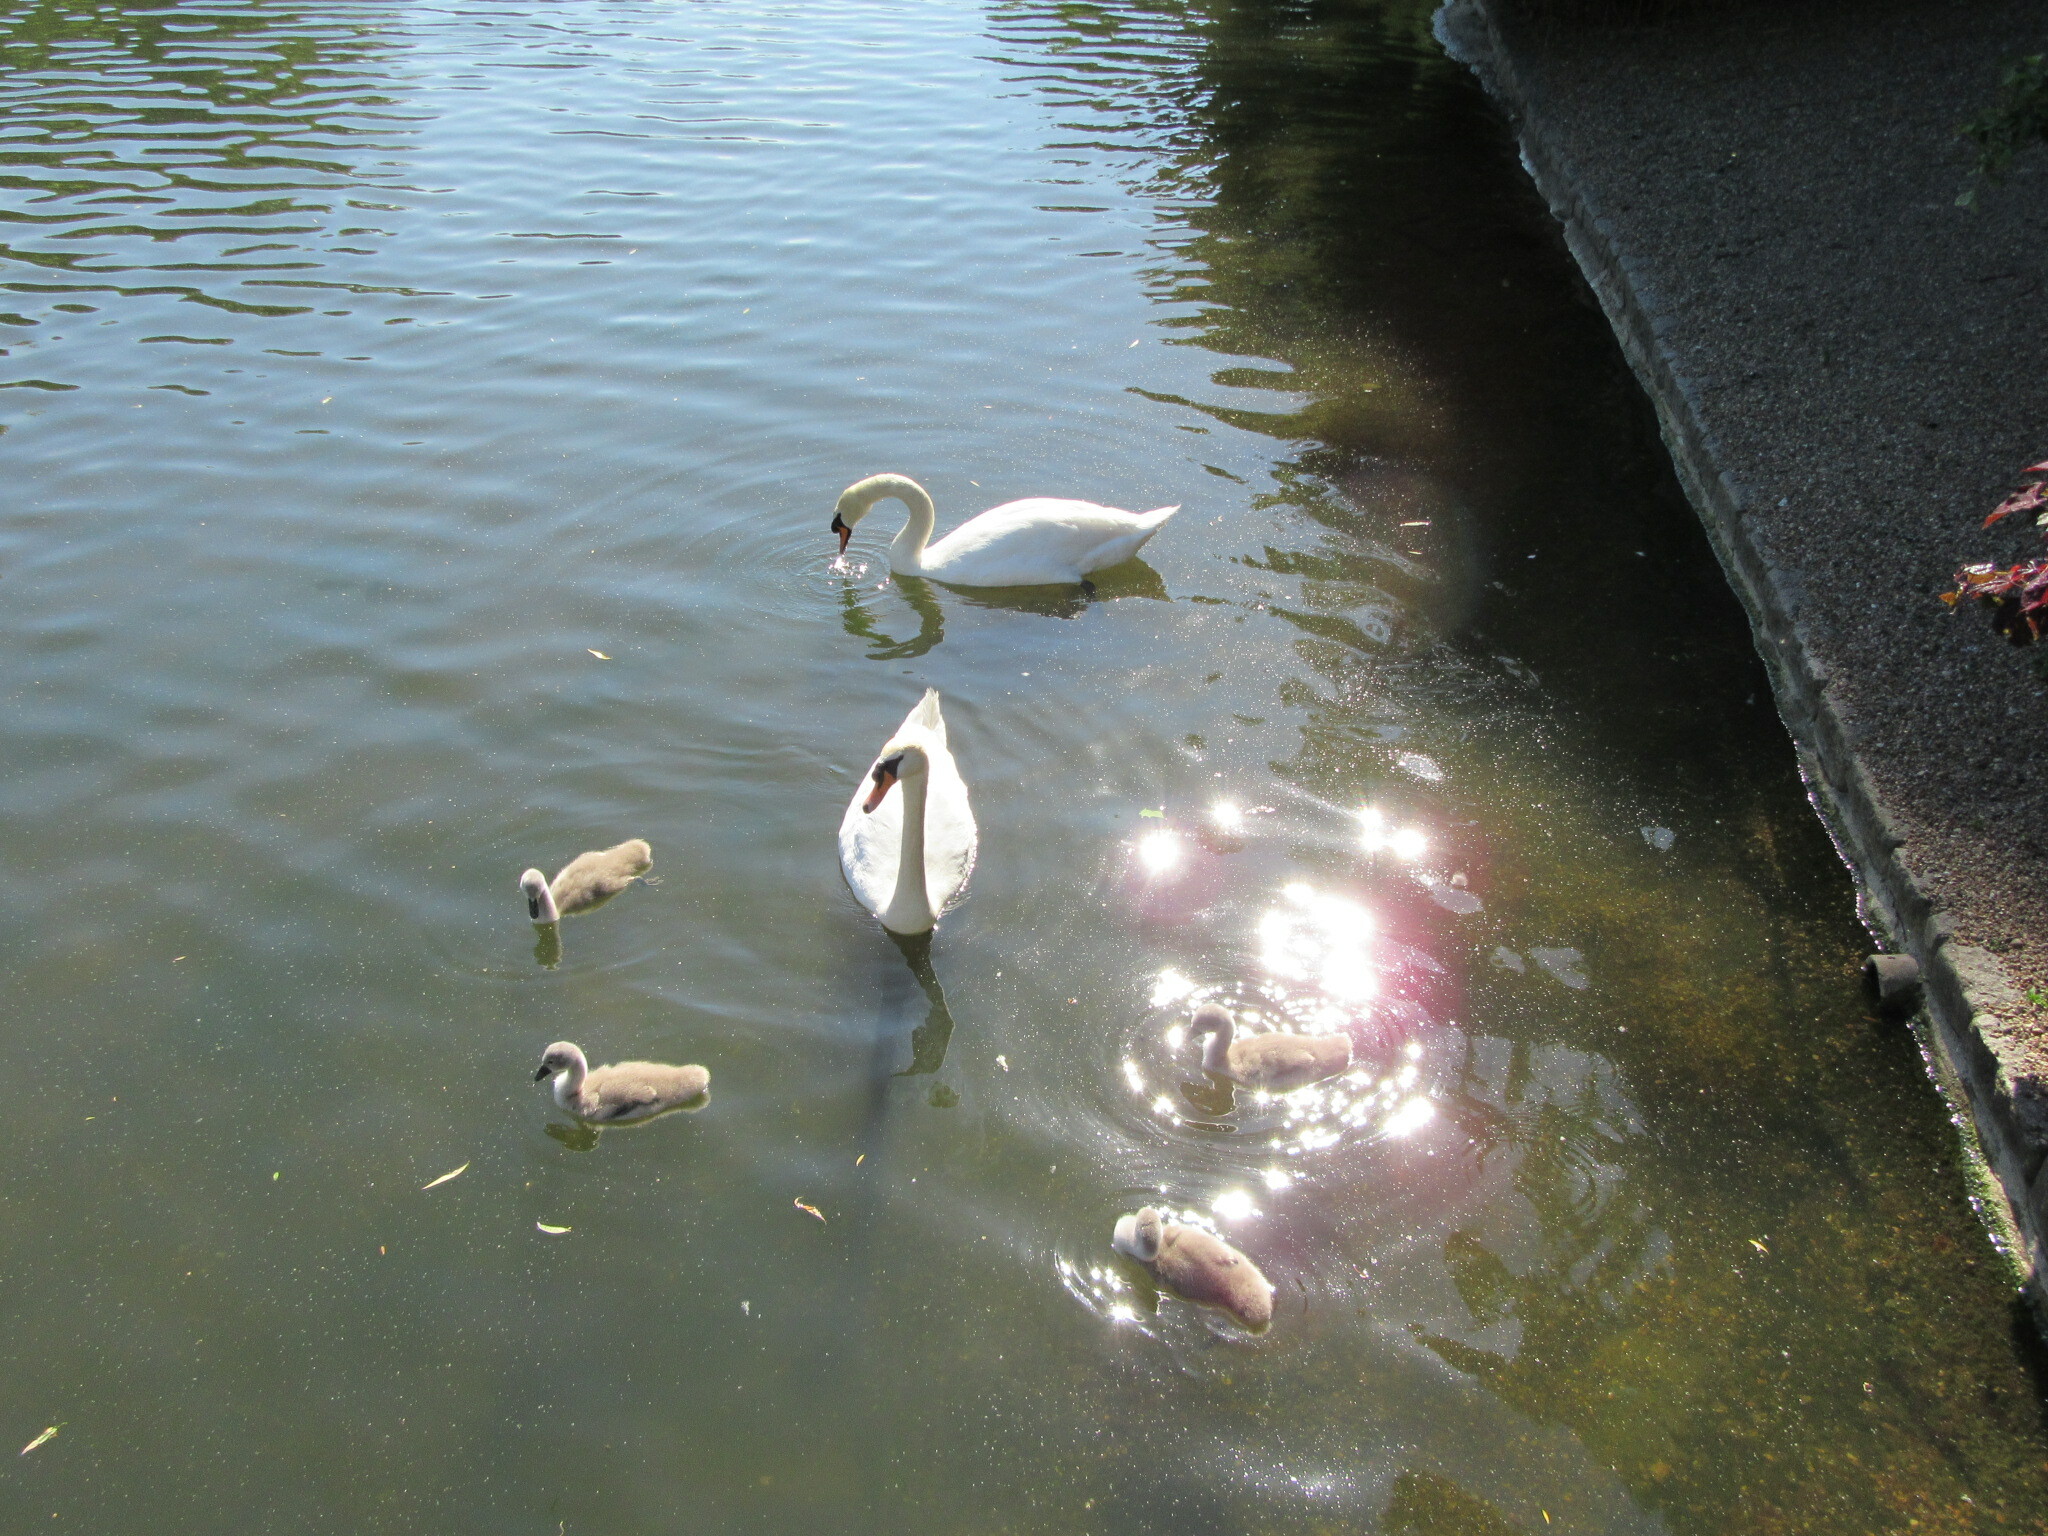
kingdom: Animalia
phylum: Chordata
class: Aves
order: Anseriformes
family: Anatidae
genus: Cygnus
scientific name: Cygnus olor
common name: Mute swan
